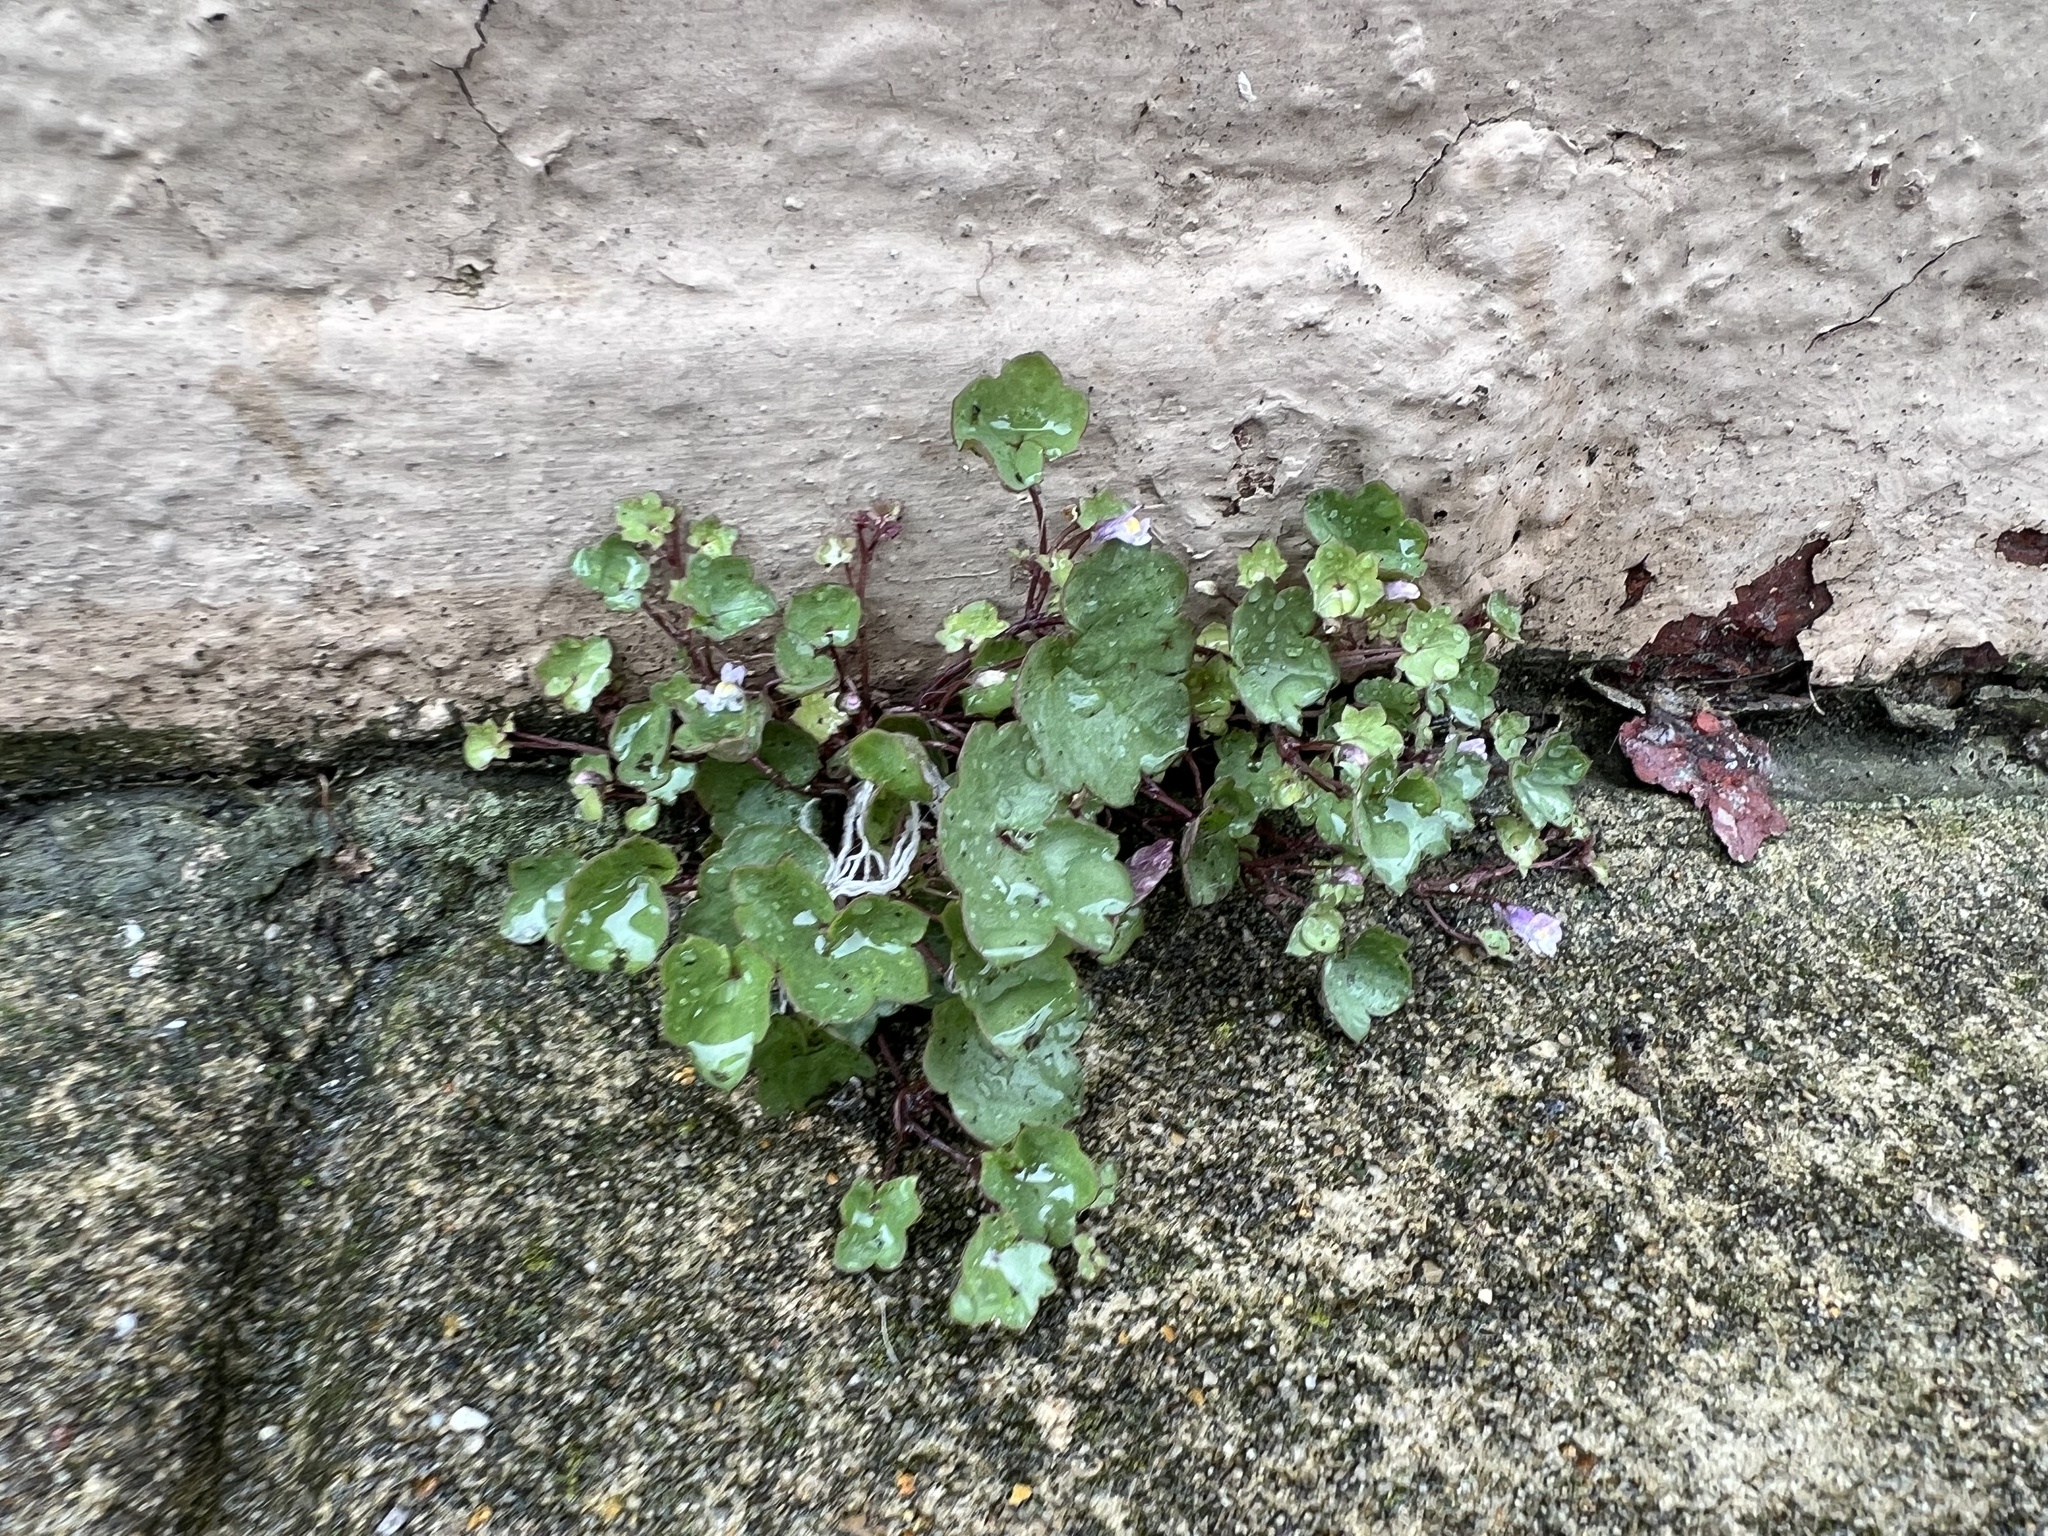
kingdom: Plantae
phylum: Tracheophyta
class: Magnoliopsida
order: Lamiales
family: Plantaginaceae
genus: Cymbalaria
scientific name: Cymbalaria muralis
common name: Ivy-leaved toadflax
